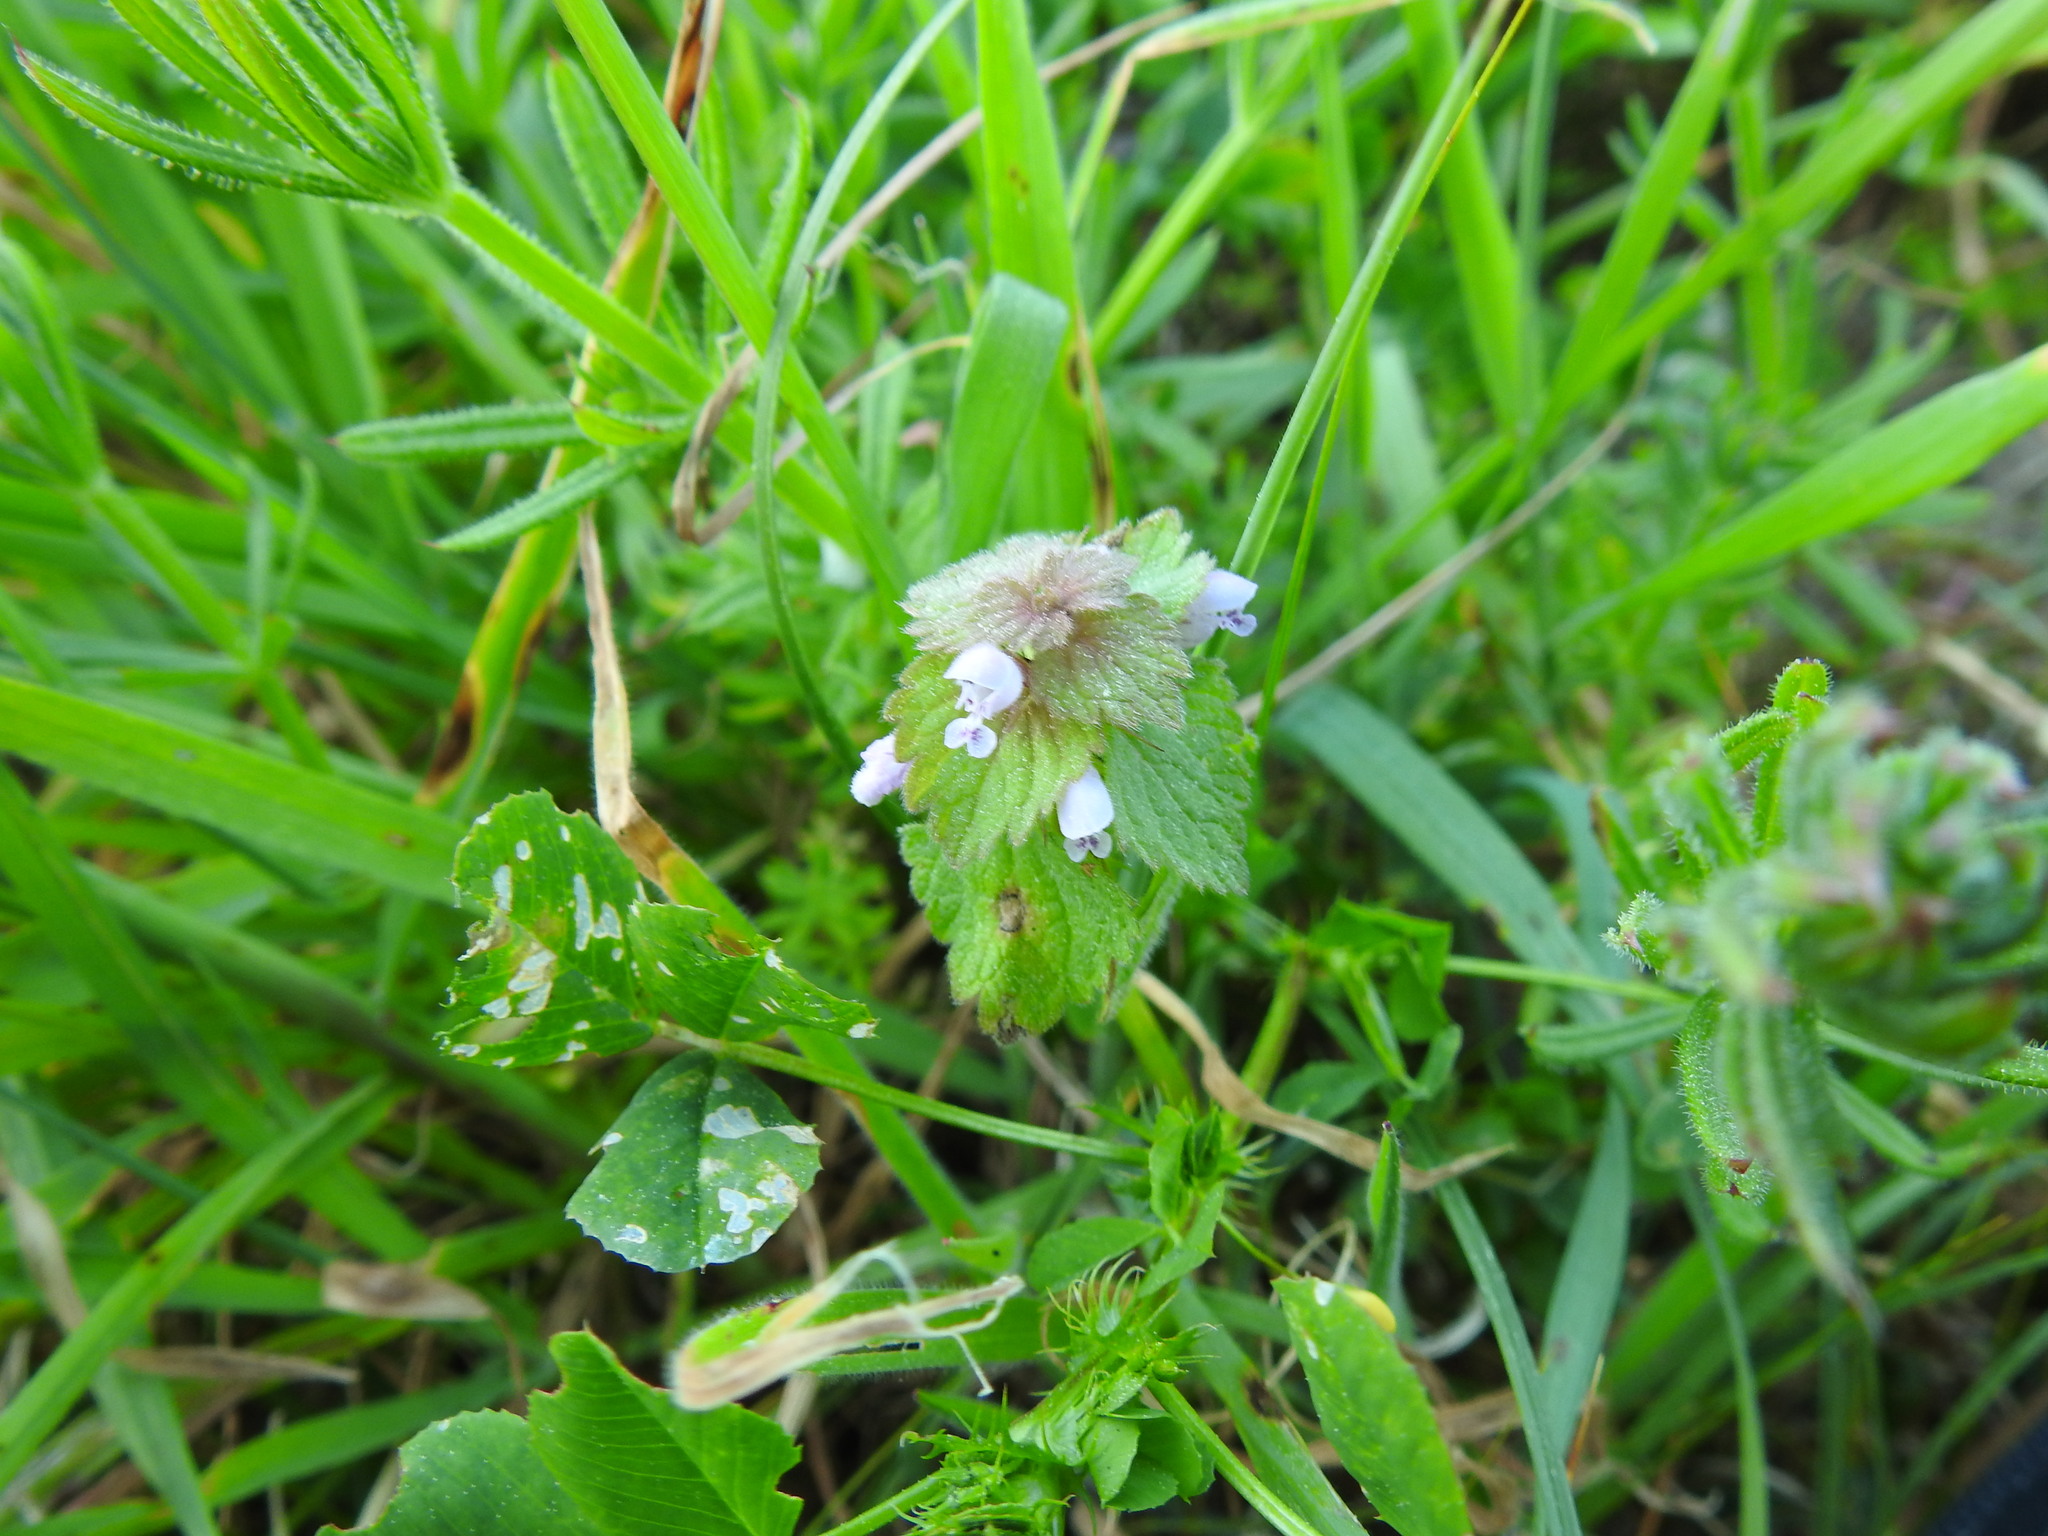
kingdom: Plantae
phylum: Tracheophyta
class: Magnoliopsida
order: Lamiales
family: Lamiaceae
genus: Lamium
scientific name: Lamium purpureum
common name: Red dead-nettle
